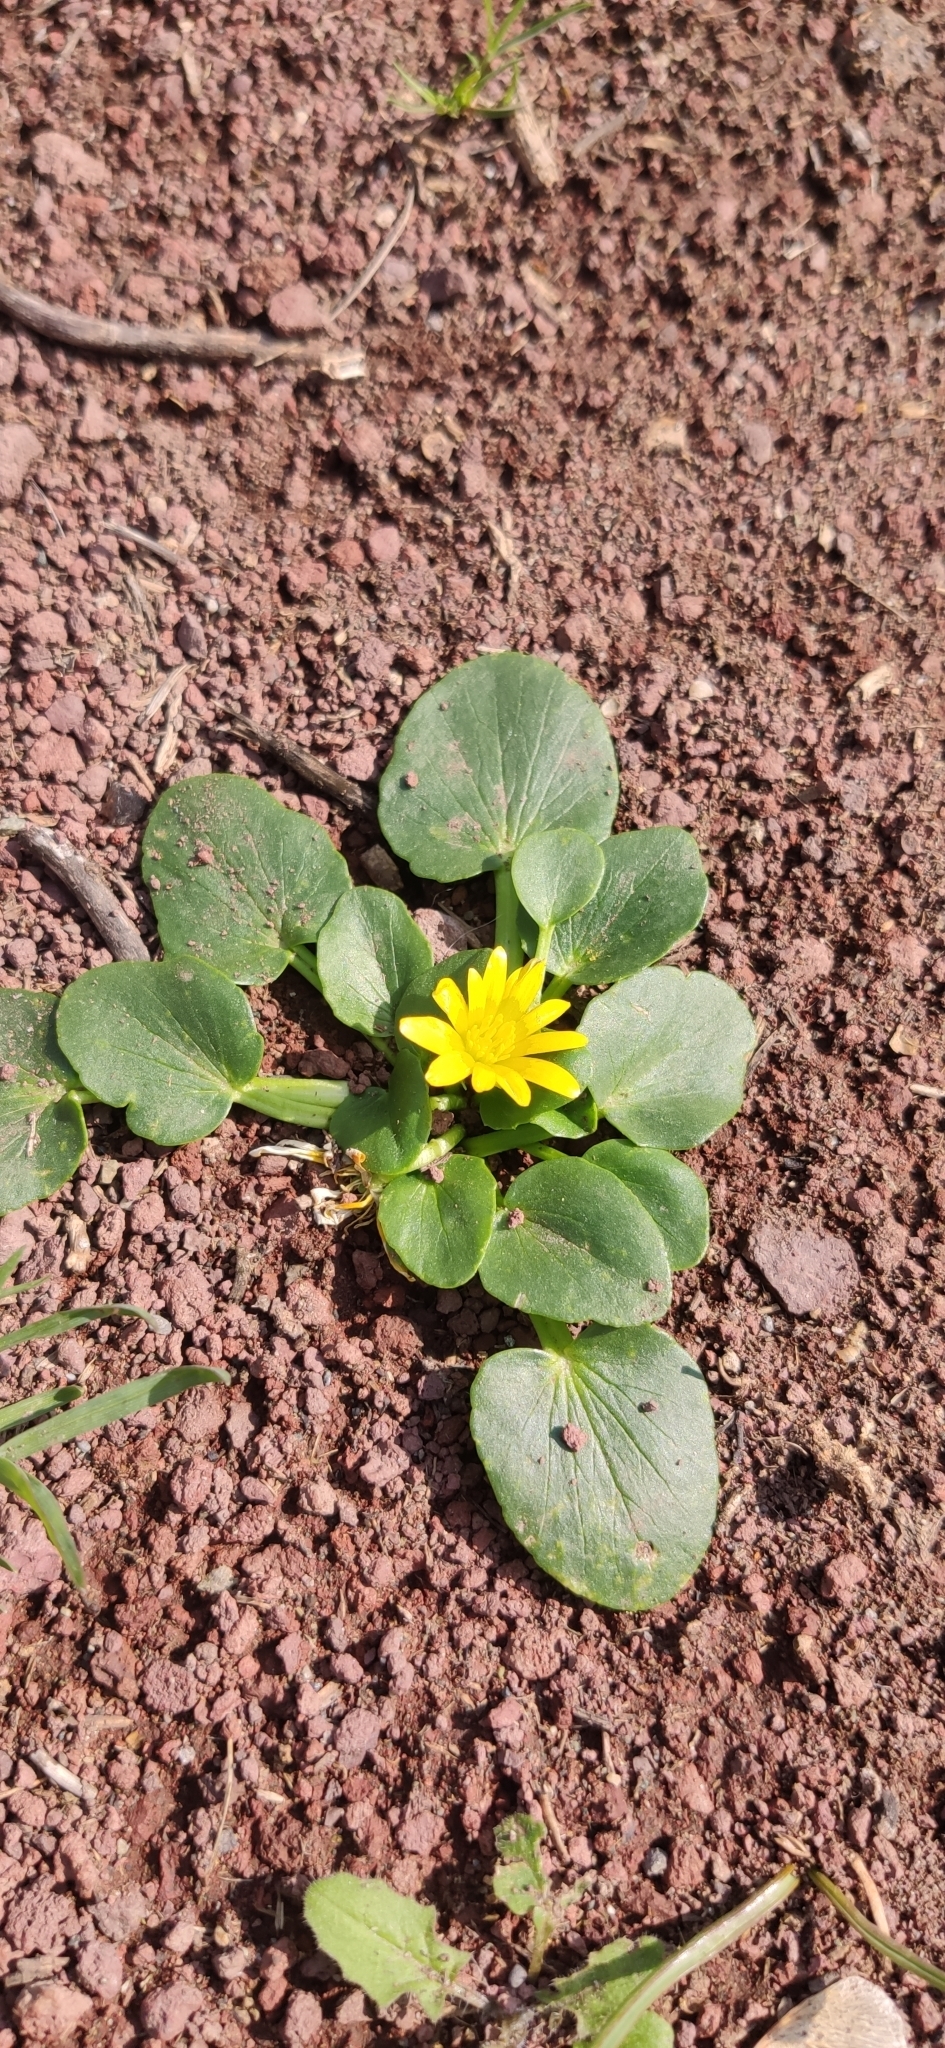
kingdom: Plantae
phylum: Tracheophyta
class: Magnoliopsida
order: Ranunculales
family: Ranunculaceae
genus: Ficaria
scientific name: Ficaria verna
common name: Lesser celandine
